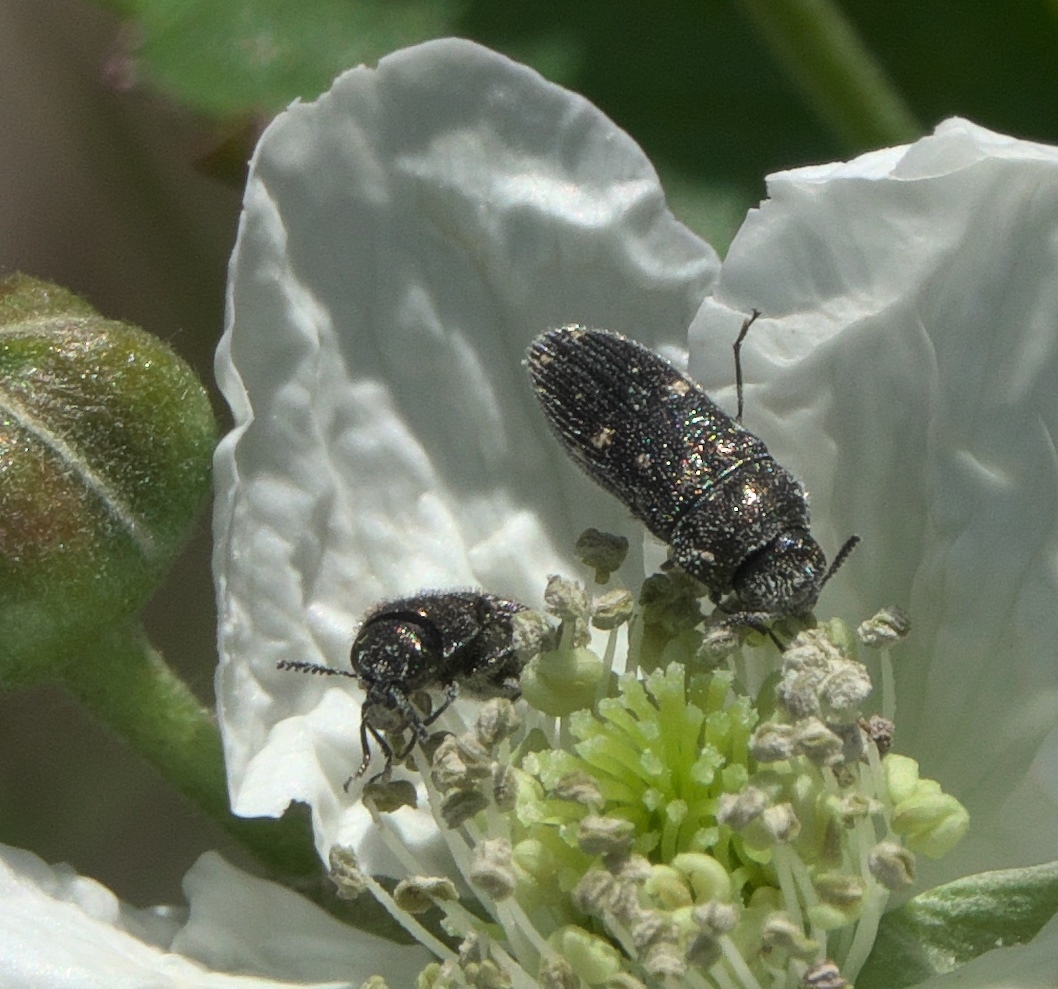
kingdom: Animalia
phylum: Arthropoda
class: Insecta
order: Coleoptera
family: Buprestidae
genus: Acmaeodera
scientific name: Acmaeodera tubulus
